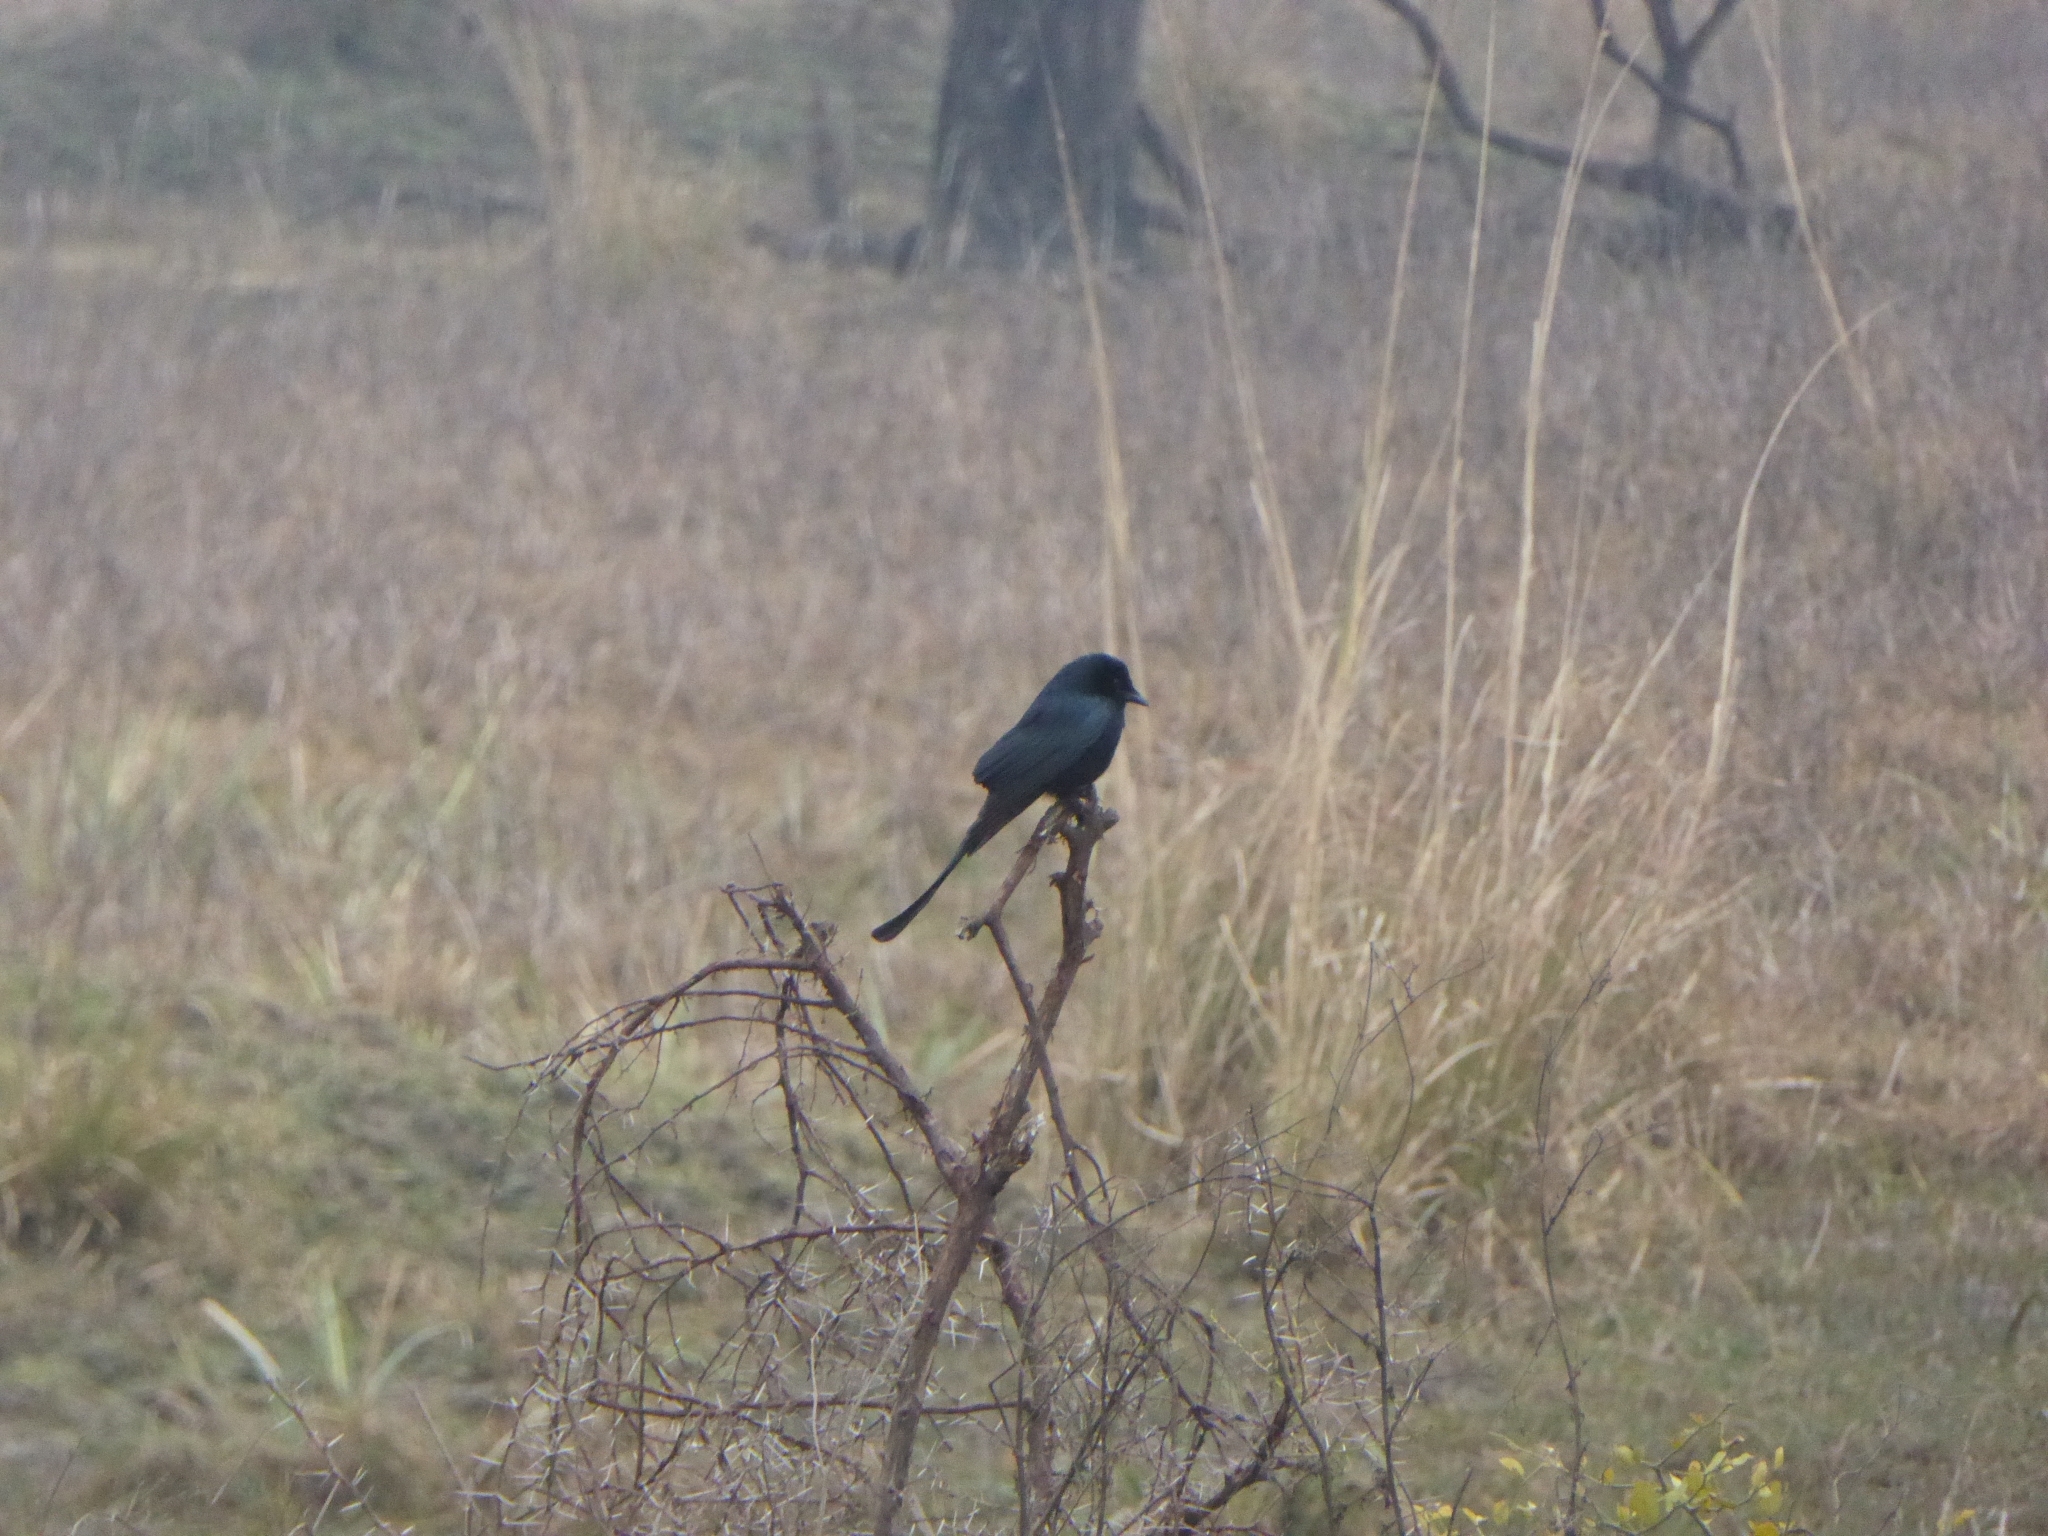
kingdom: Animalia
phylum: Chordata
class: Aves
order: Passeriformes
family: Dicruridae
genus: Dicrurus
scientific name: Dicrurus macrocercus
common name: Black drongo
